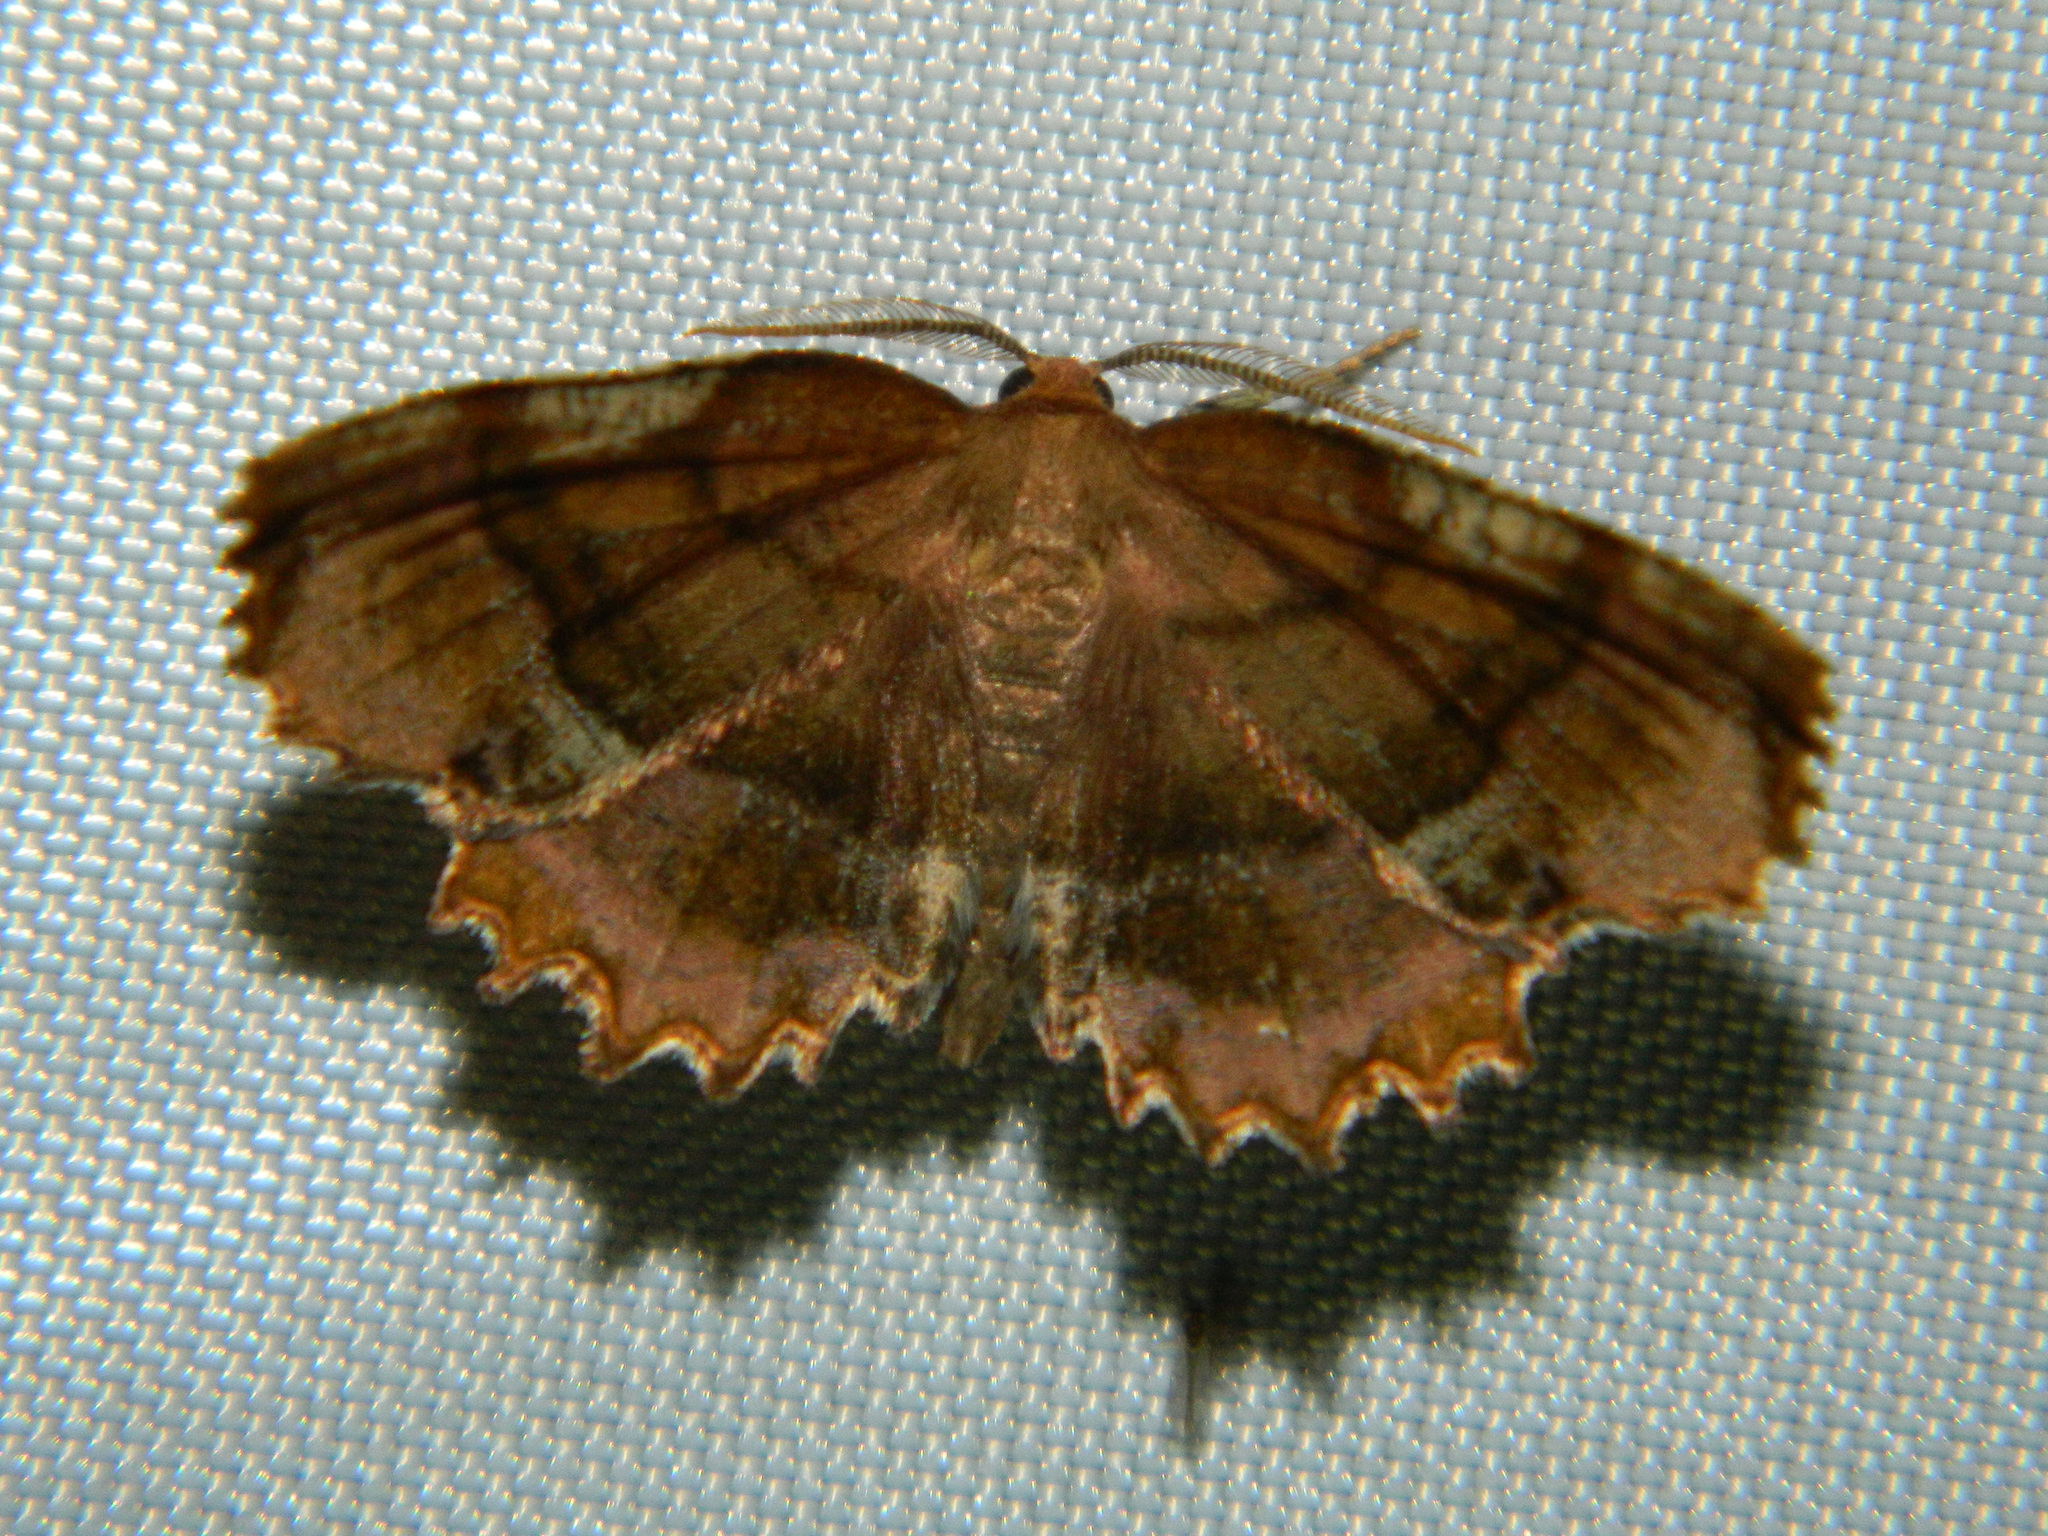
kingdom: Animalia
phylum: Arthropoda
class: Insecta
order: Lepidoptera
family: Geometridae
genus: Cepphis
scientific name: Cepphis armataria
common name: Scallop moth
